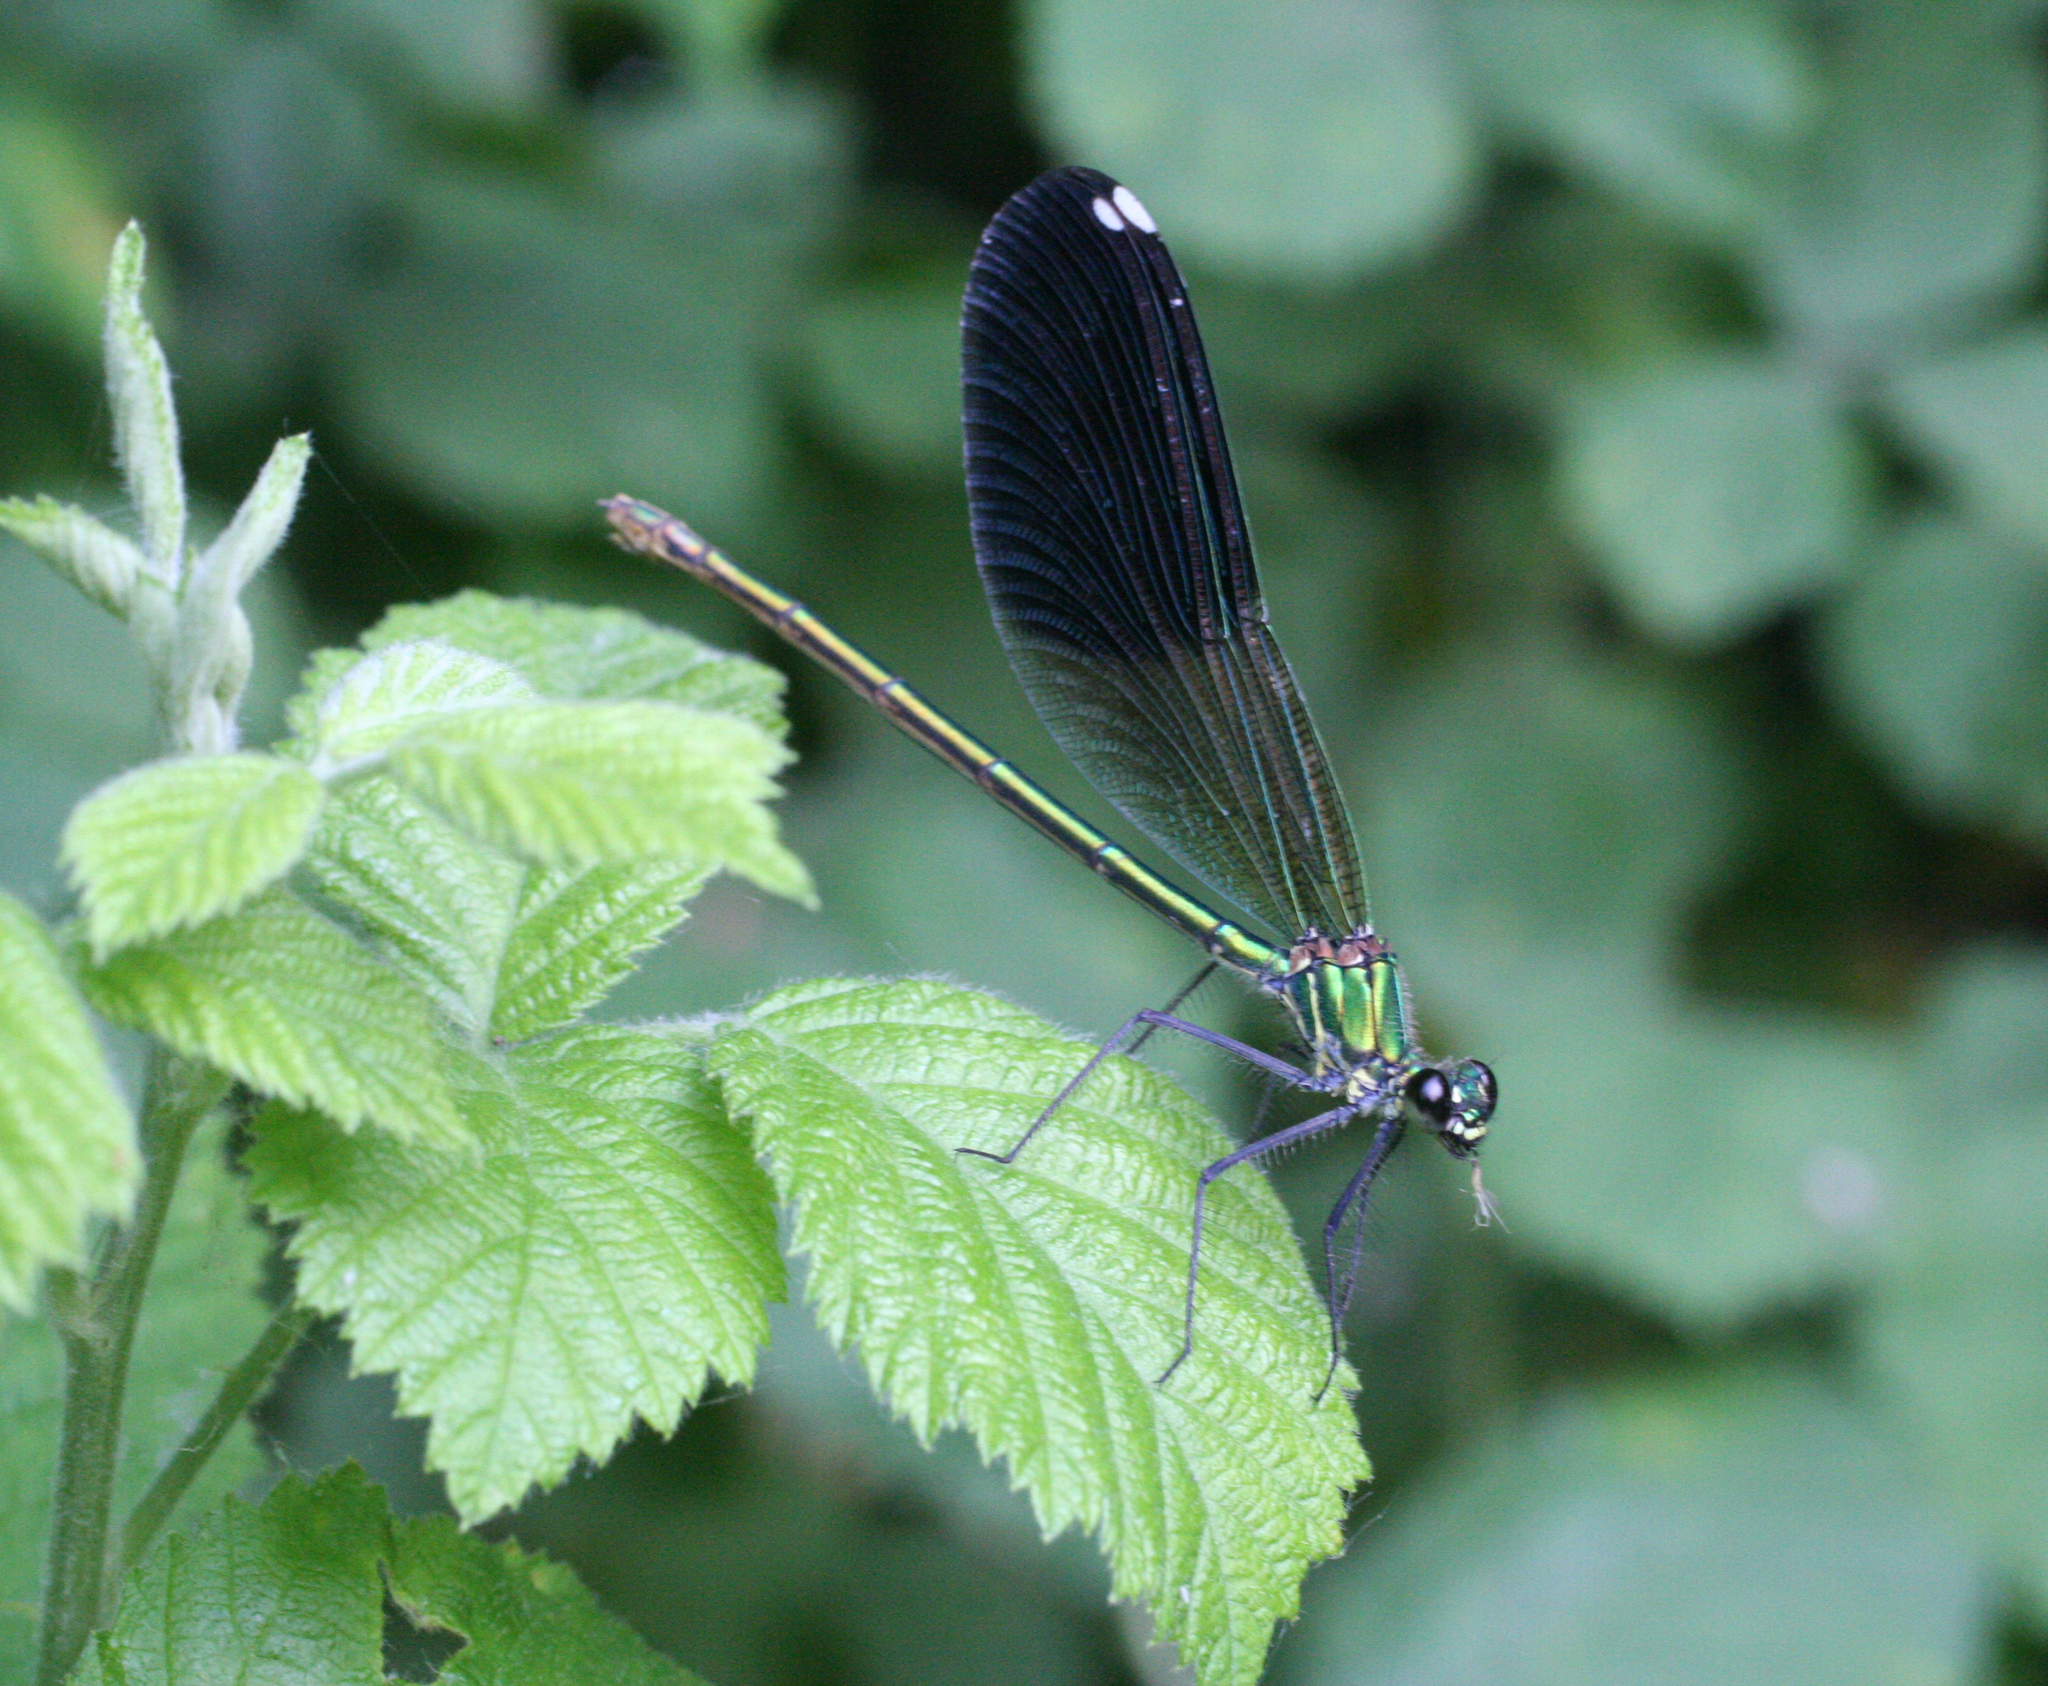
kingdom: Animalia
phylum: Arthropoda
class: Insecta
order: Odonata
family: Calopterygidae
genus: Calopteryx
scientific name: Calopteryx splendens
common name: Banded demoiselle
